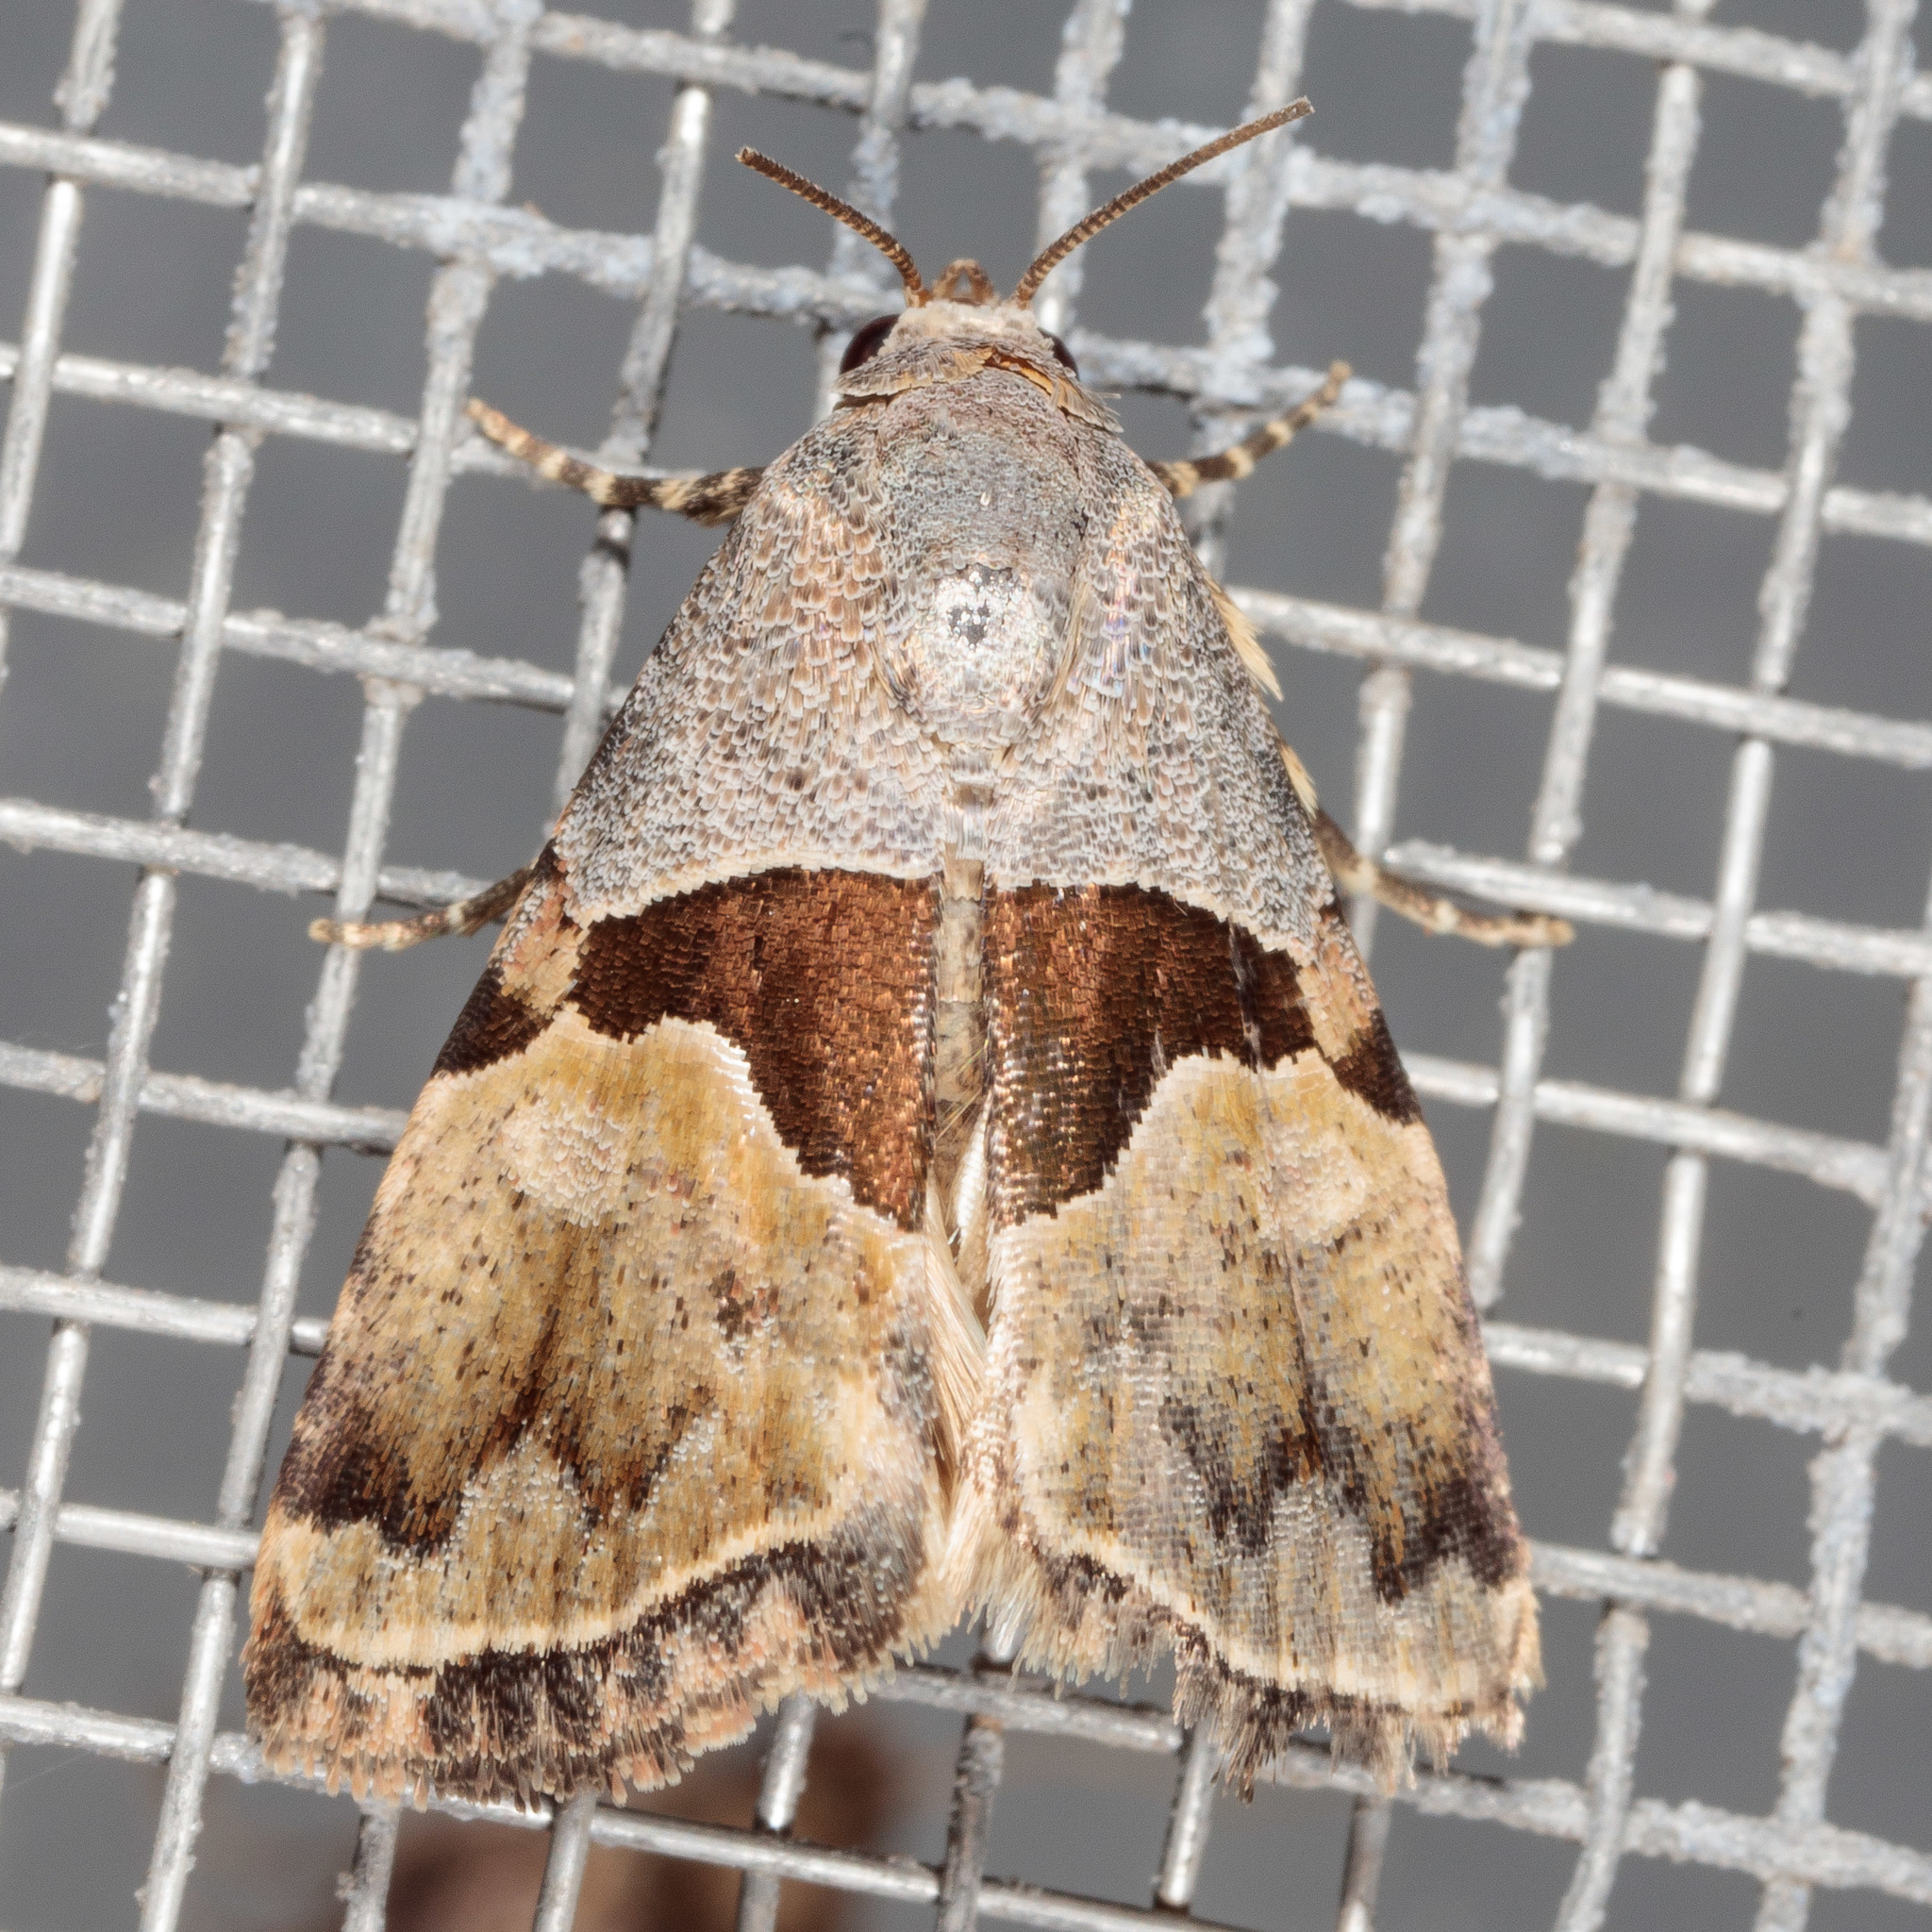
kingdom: Animalia
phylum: Arthropoda
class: Insecta
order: Lepidoptera
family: Noctuidae
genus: Cobubatha
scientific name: Cobubatha lixiva
